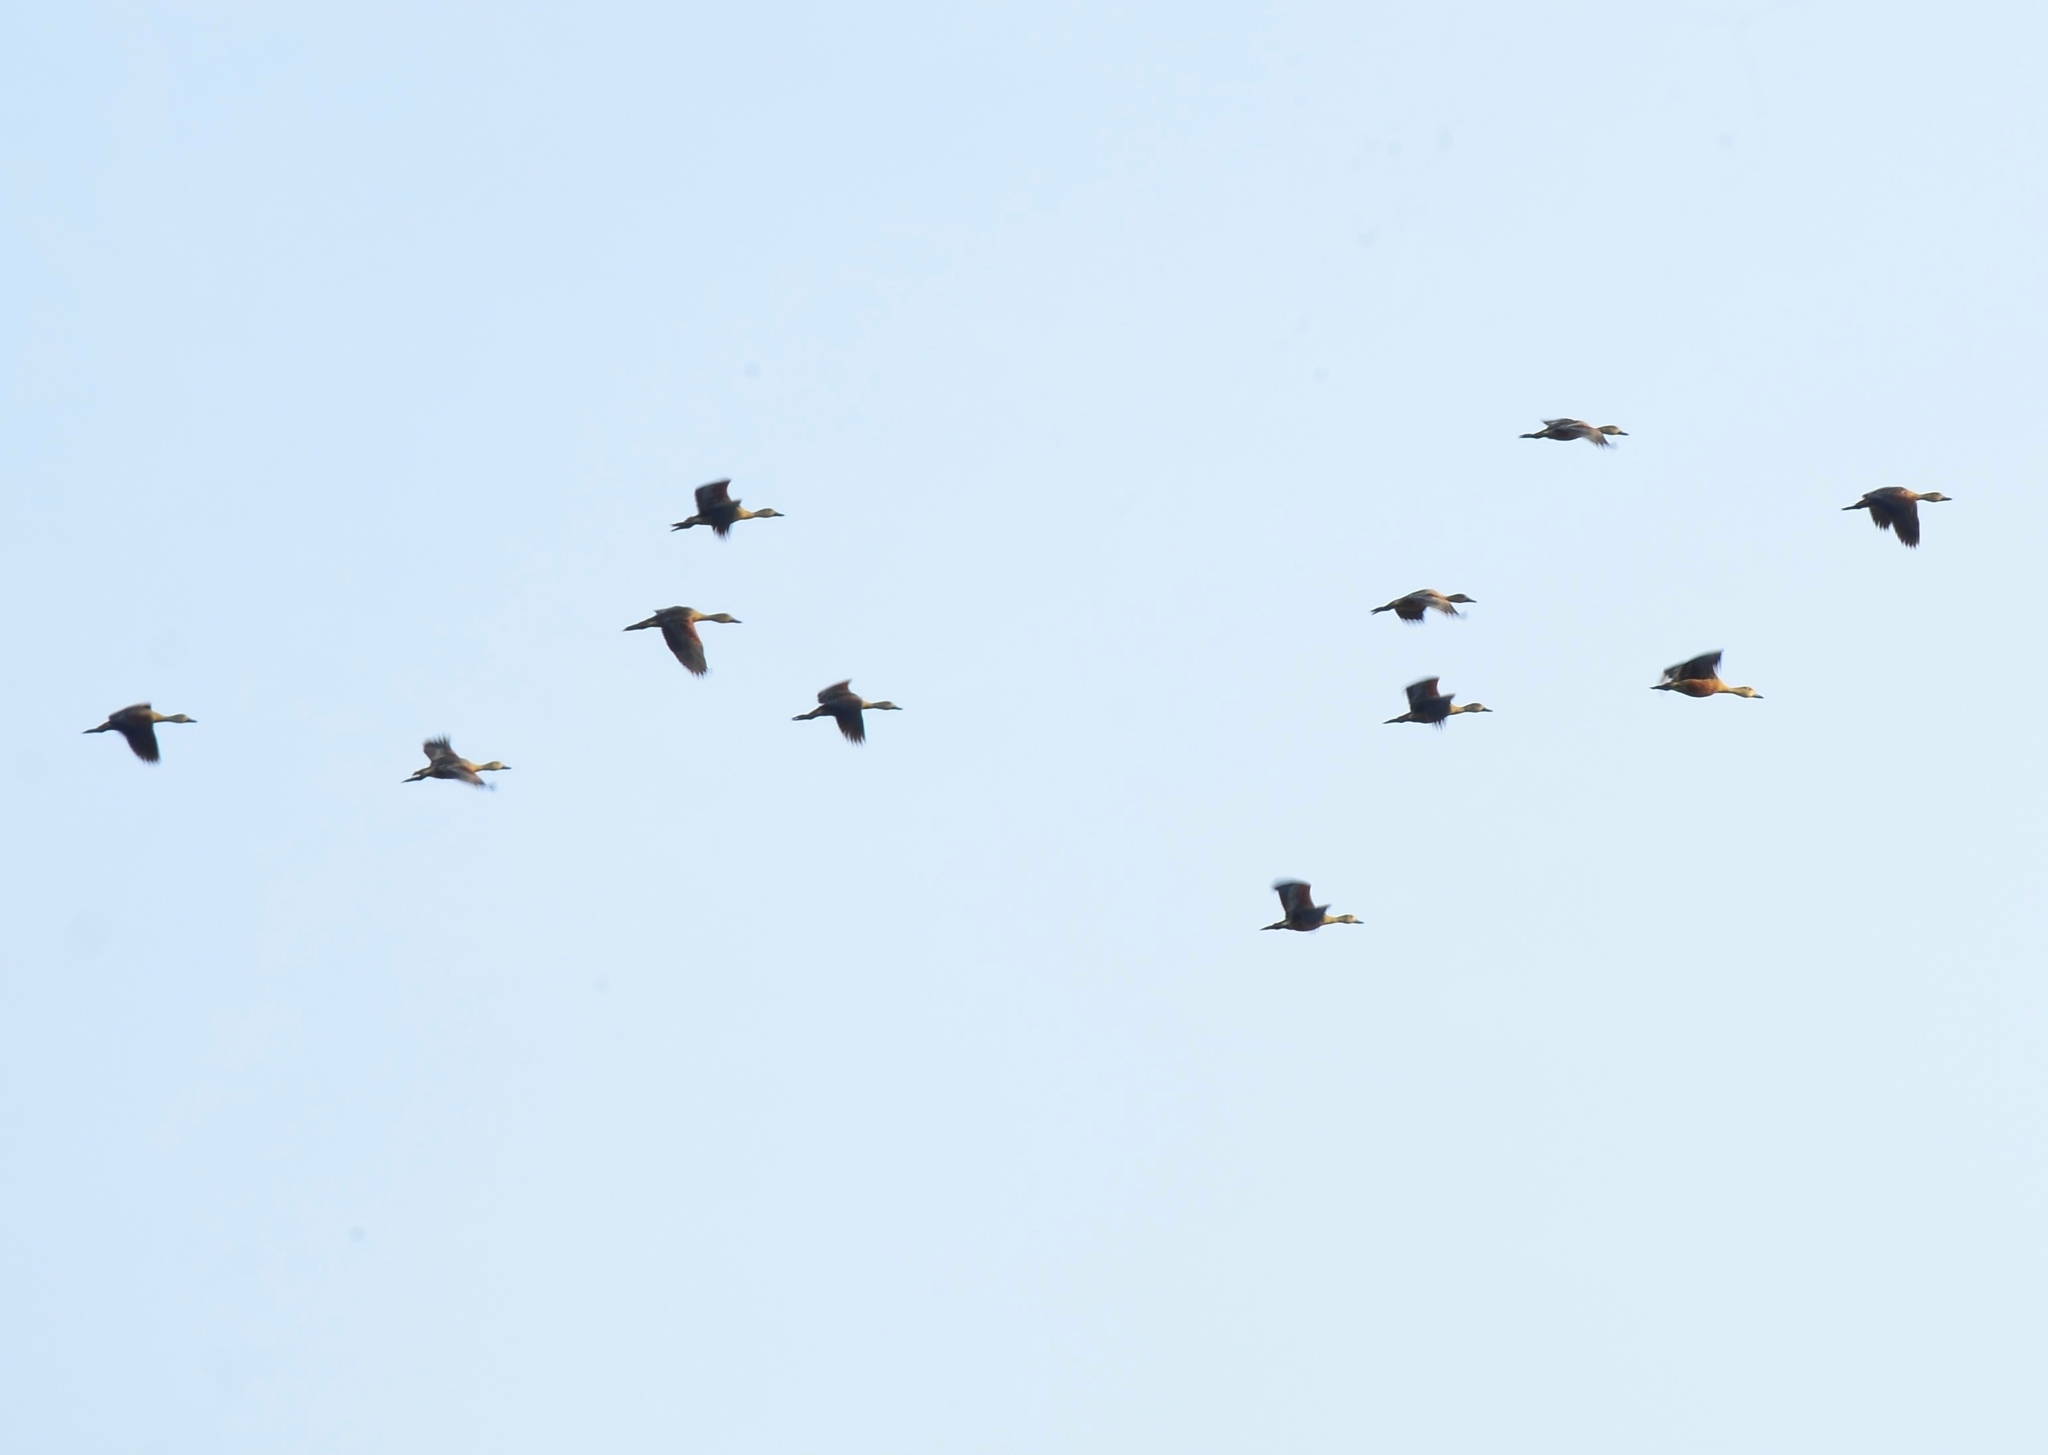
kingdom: Animalia
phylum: Chordata
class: Aves
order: Anseriformes
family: Anatidae
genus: Dendrocygna
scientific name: Dendrocygna javanica
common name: Lesser whistling-duck
